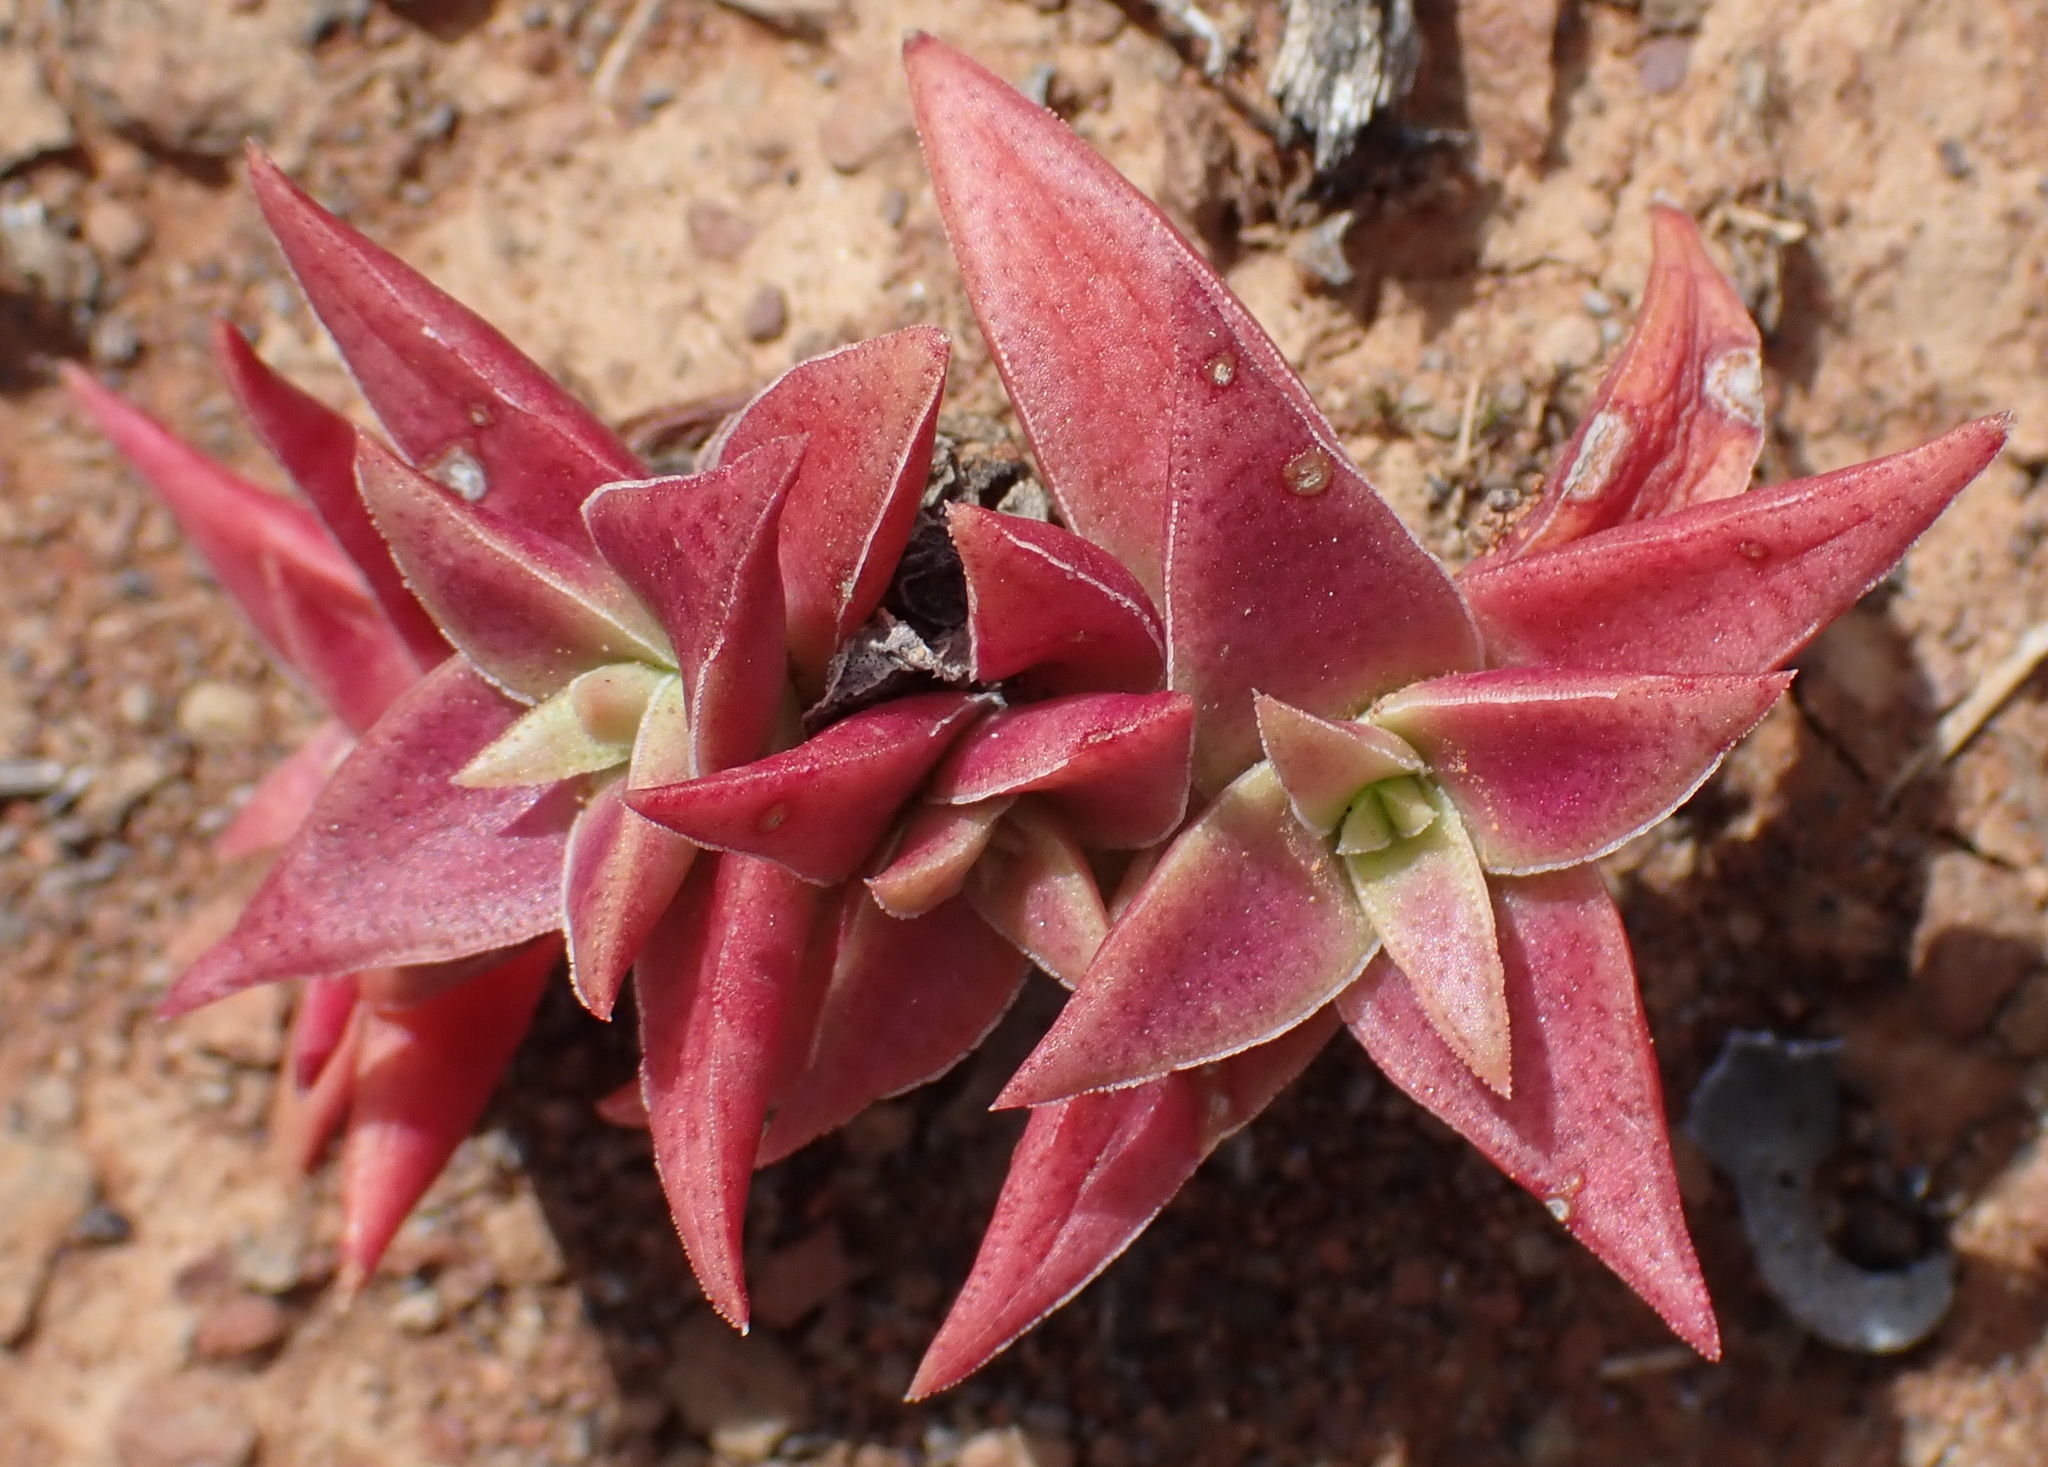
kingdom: Plantae
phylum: Tracheophyta
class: Magnoliopsida
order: Saxifragales
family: Crassulaceae
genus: Crassula
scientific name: Crassula capitella
